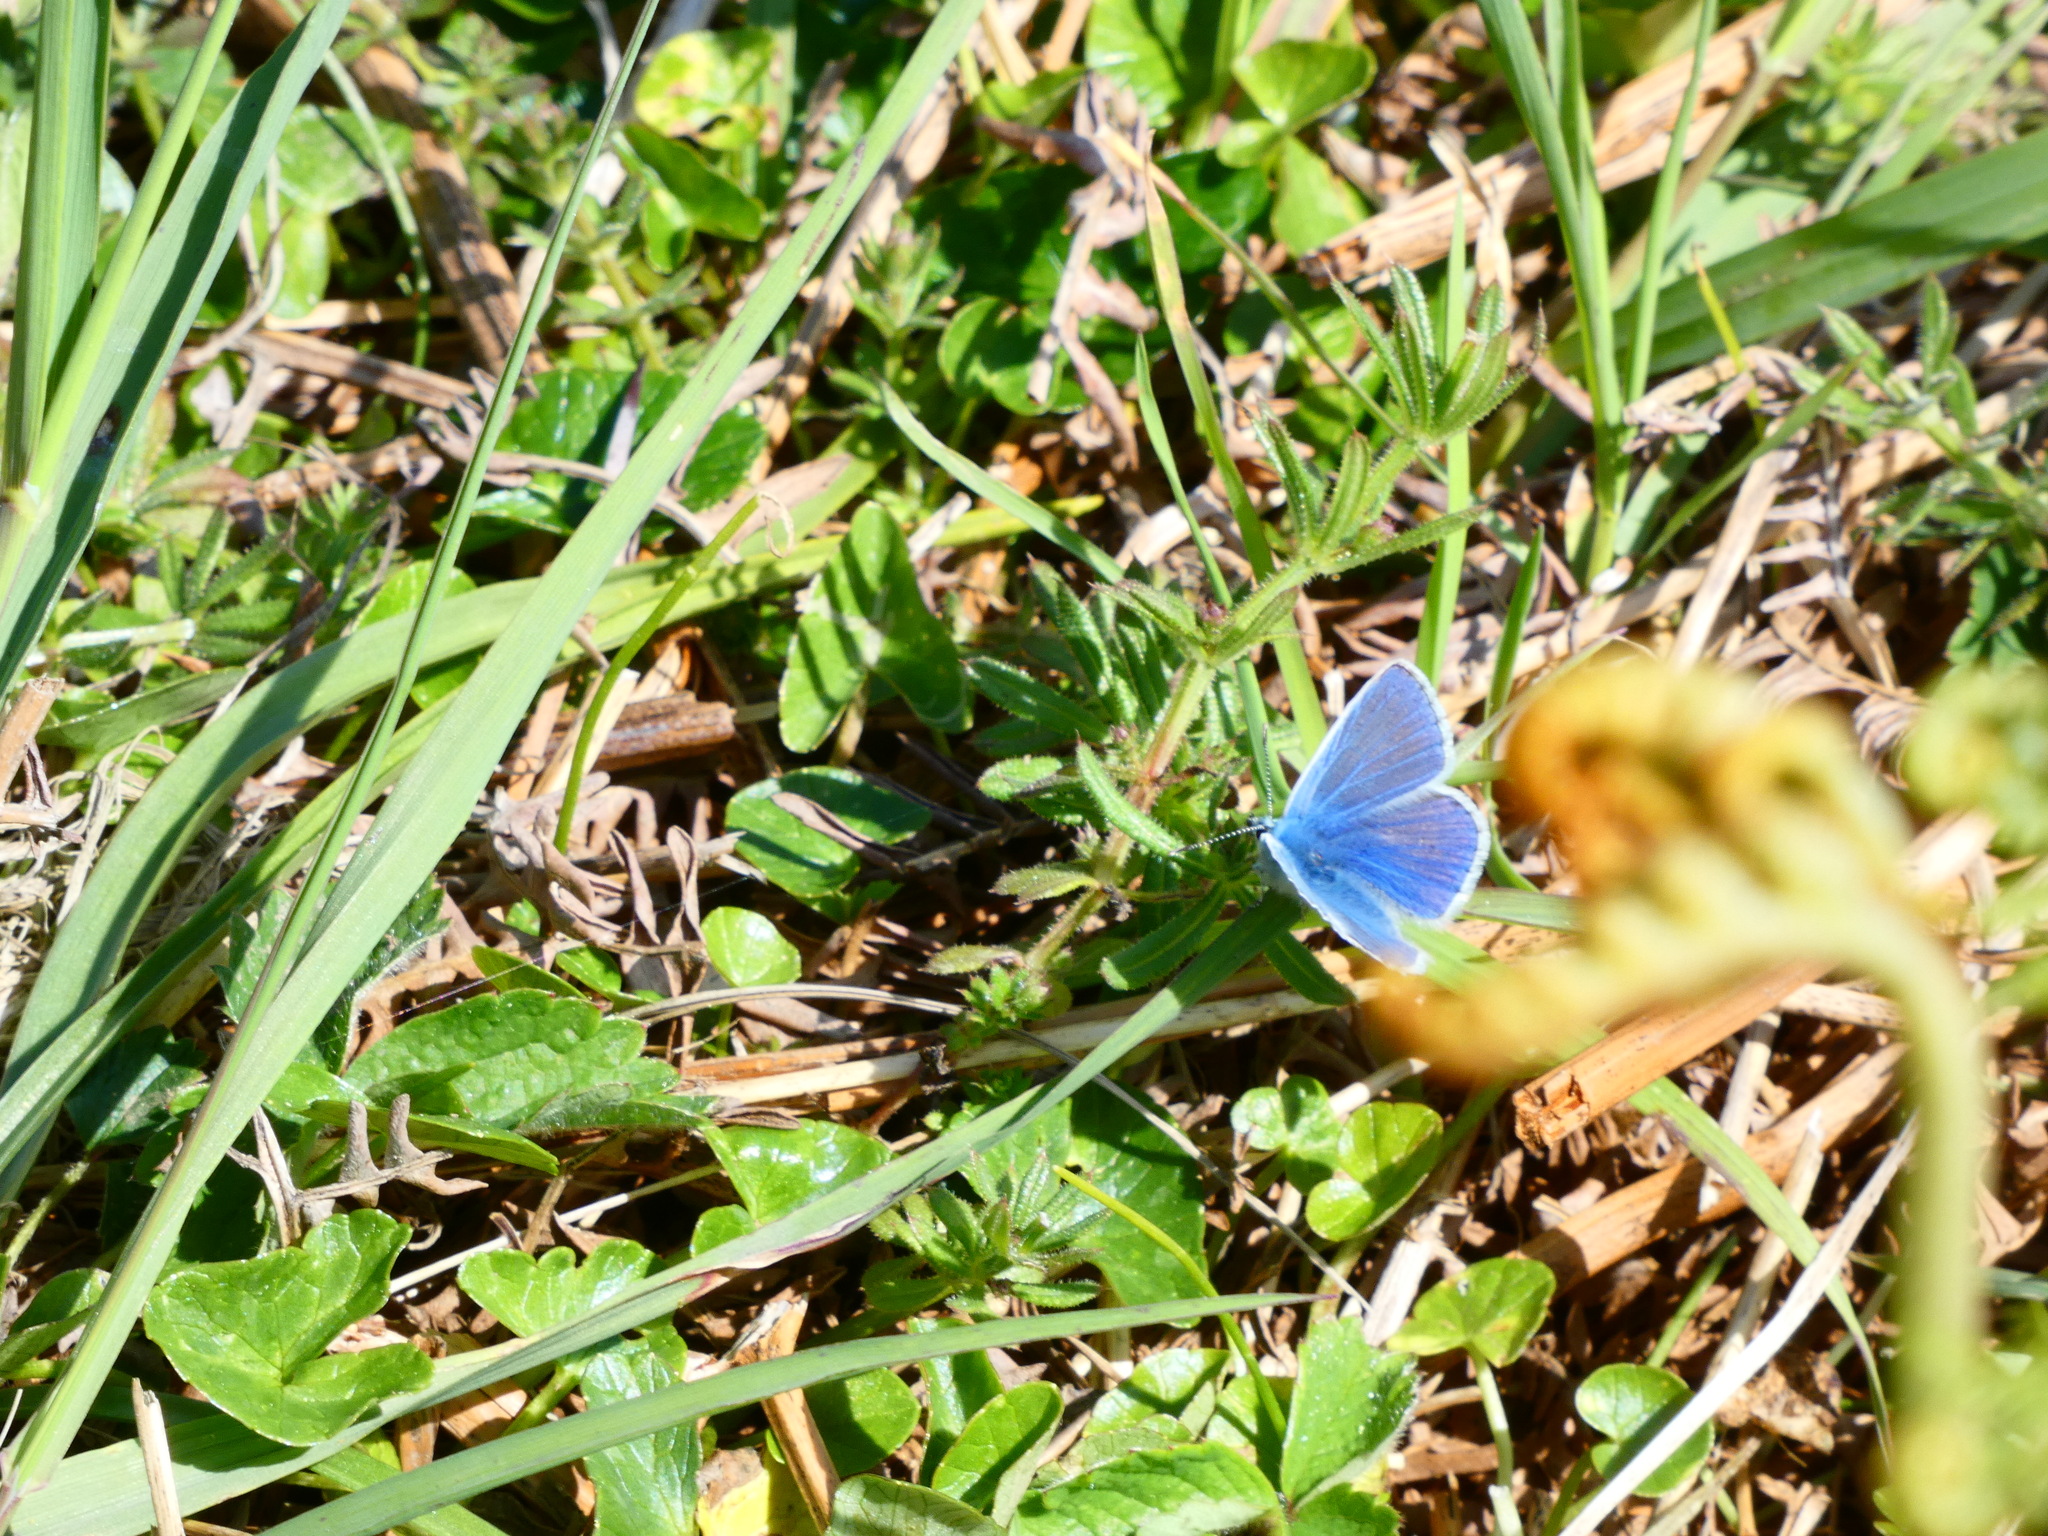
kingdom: Animalia
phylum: Arthropoda
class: Insecta
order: Lepidoptera
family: Lycaenidae
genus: Polyommatus
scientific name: Polyommatus icarus
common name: Common blue
